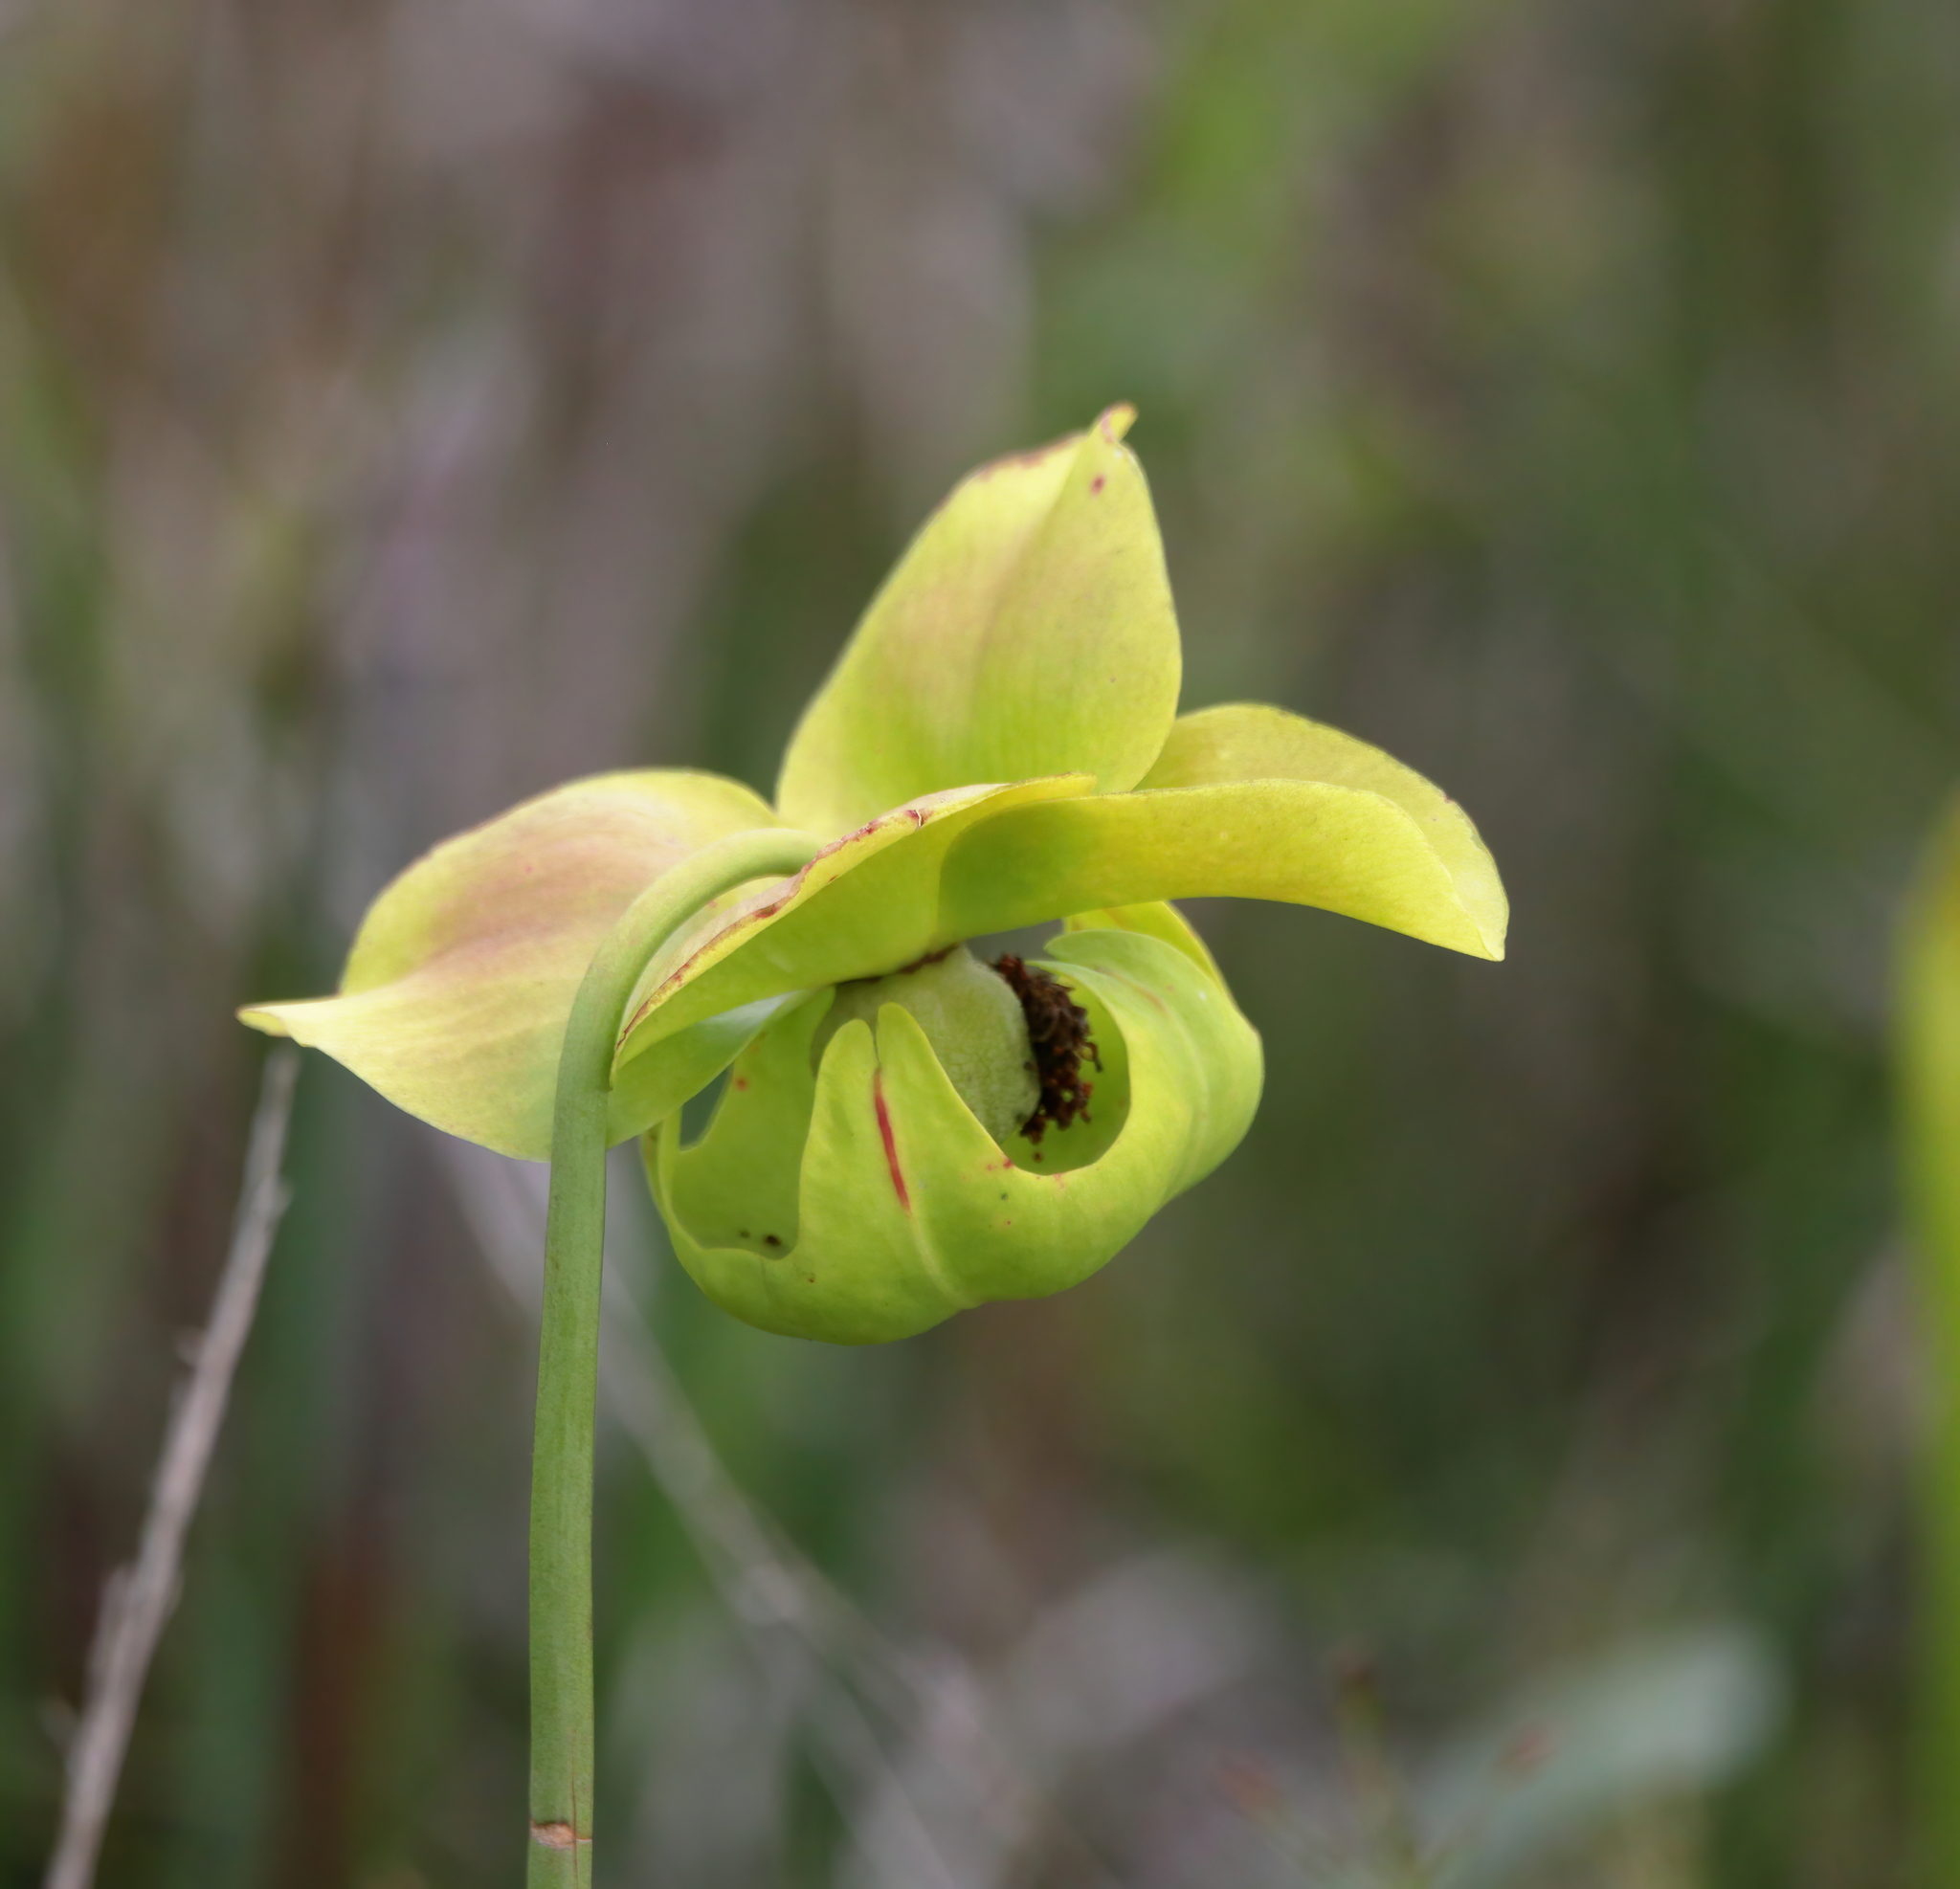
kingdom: Plantae
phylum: Tracheophyta
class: Magnoliopsida
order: Ericales
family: Sarraceniaceae
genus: Sarracenia
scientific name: Sarracenia alata
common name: Yellow trumpets
